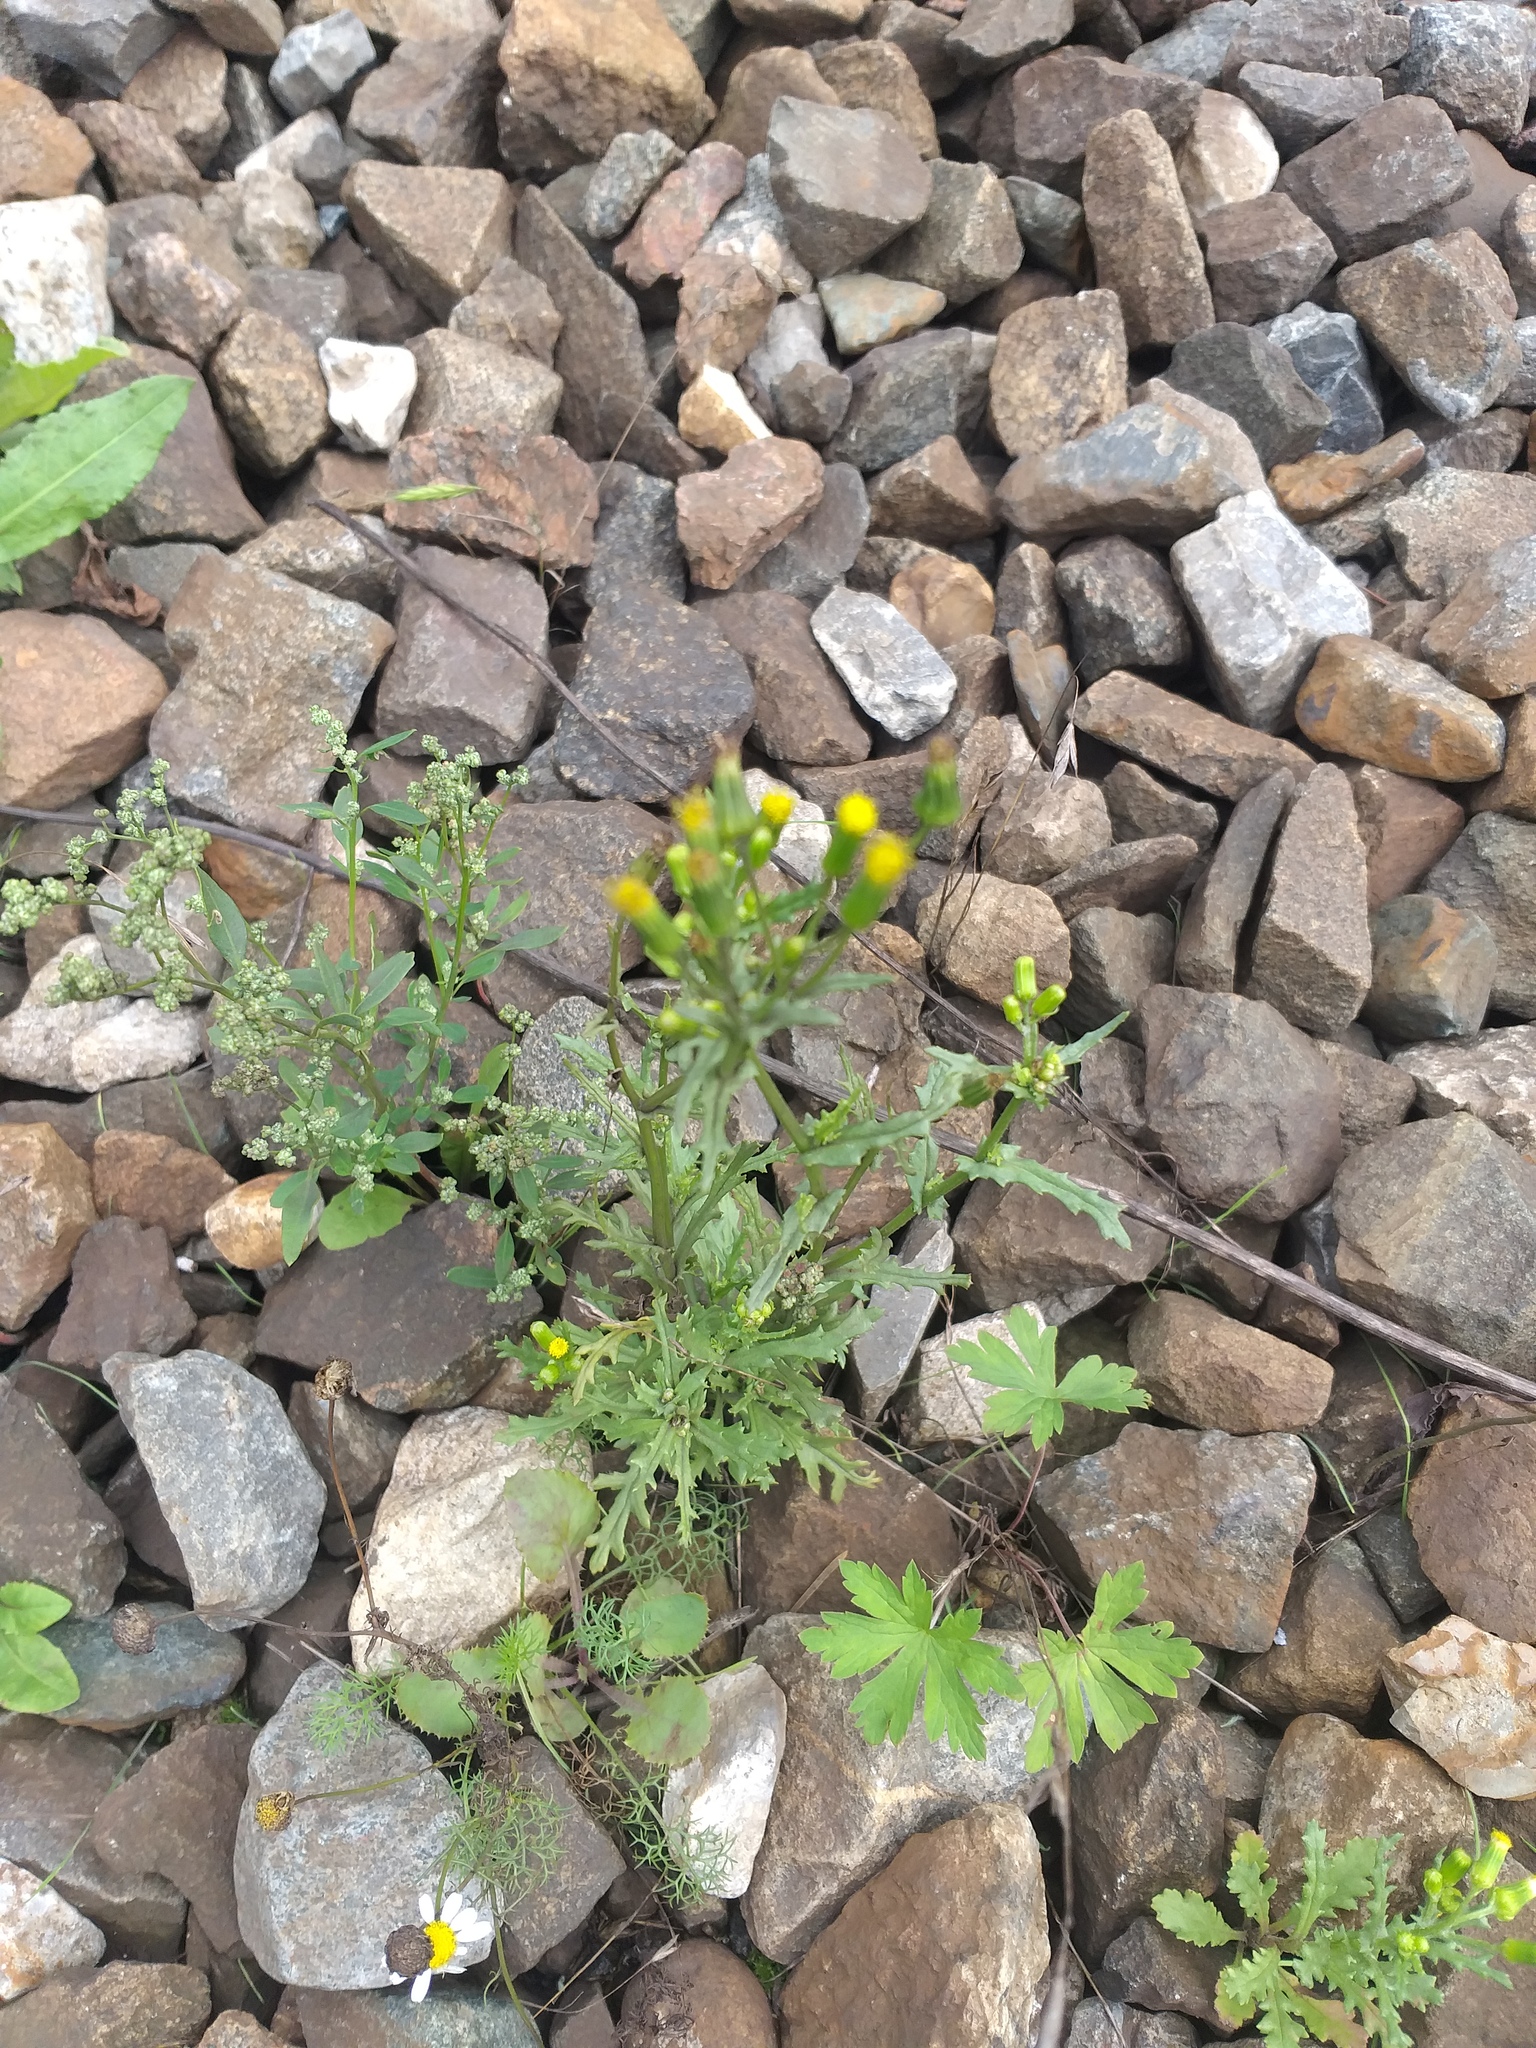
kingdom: Plantae
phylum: Tracheophyta
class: Magnoliopsida
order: Asterales
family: Asteraceae
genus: Senecio
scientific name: Senecio vulgaris
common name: Old-man-in-the-spring
